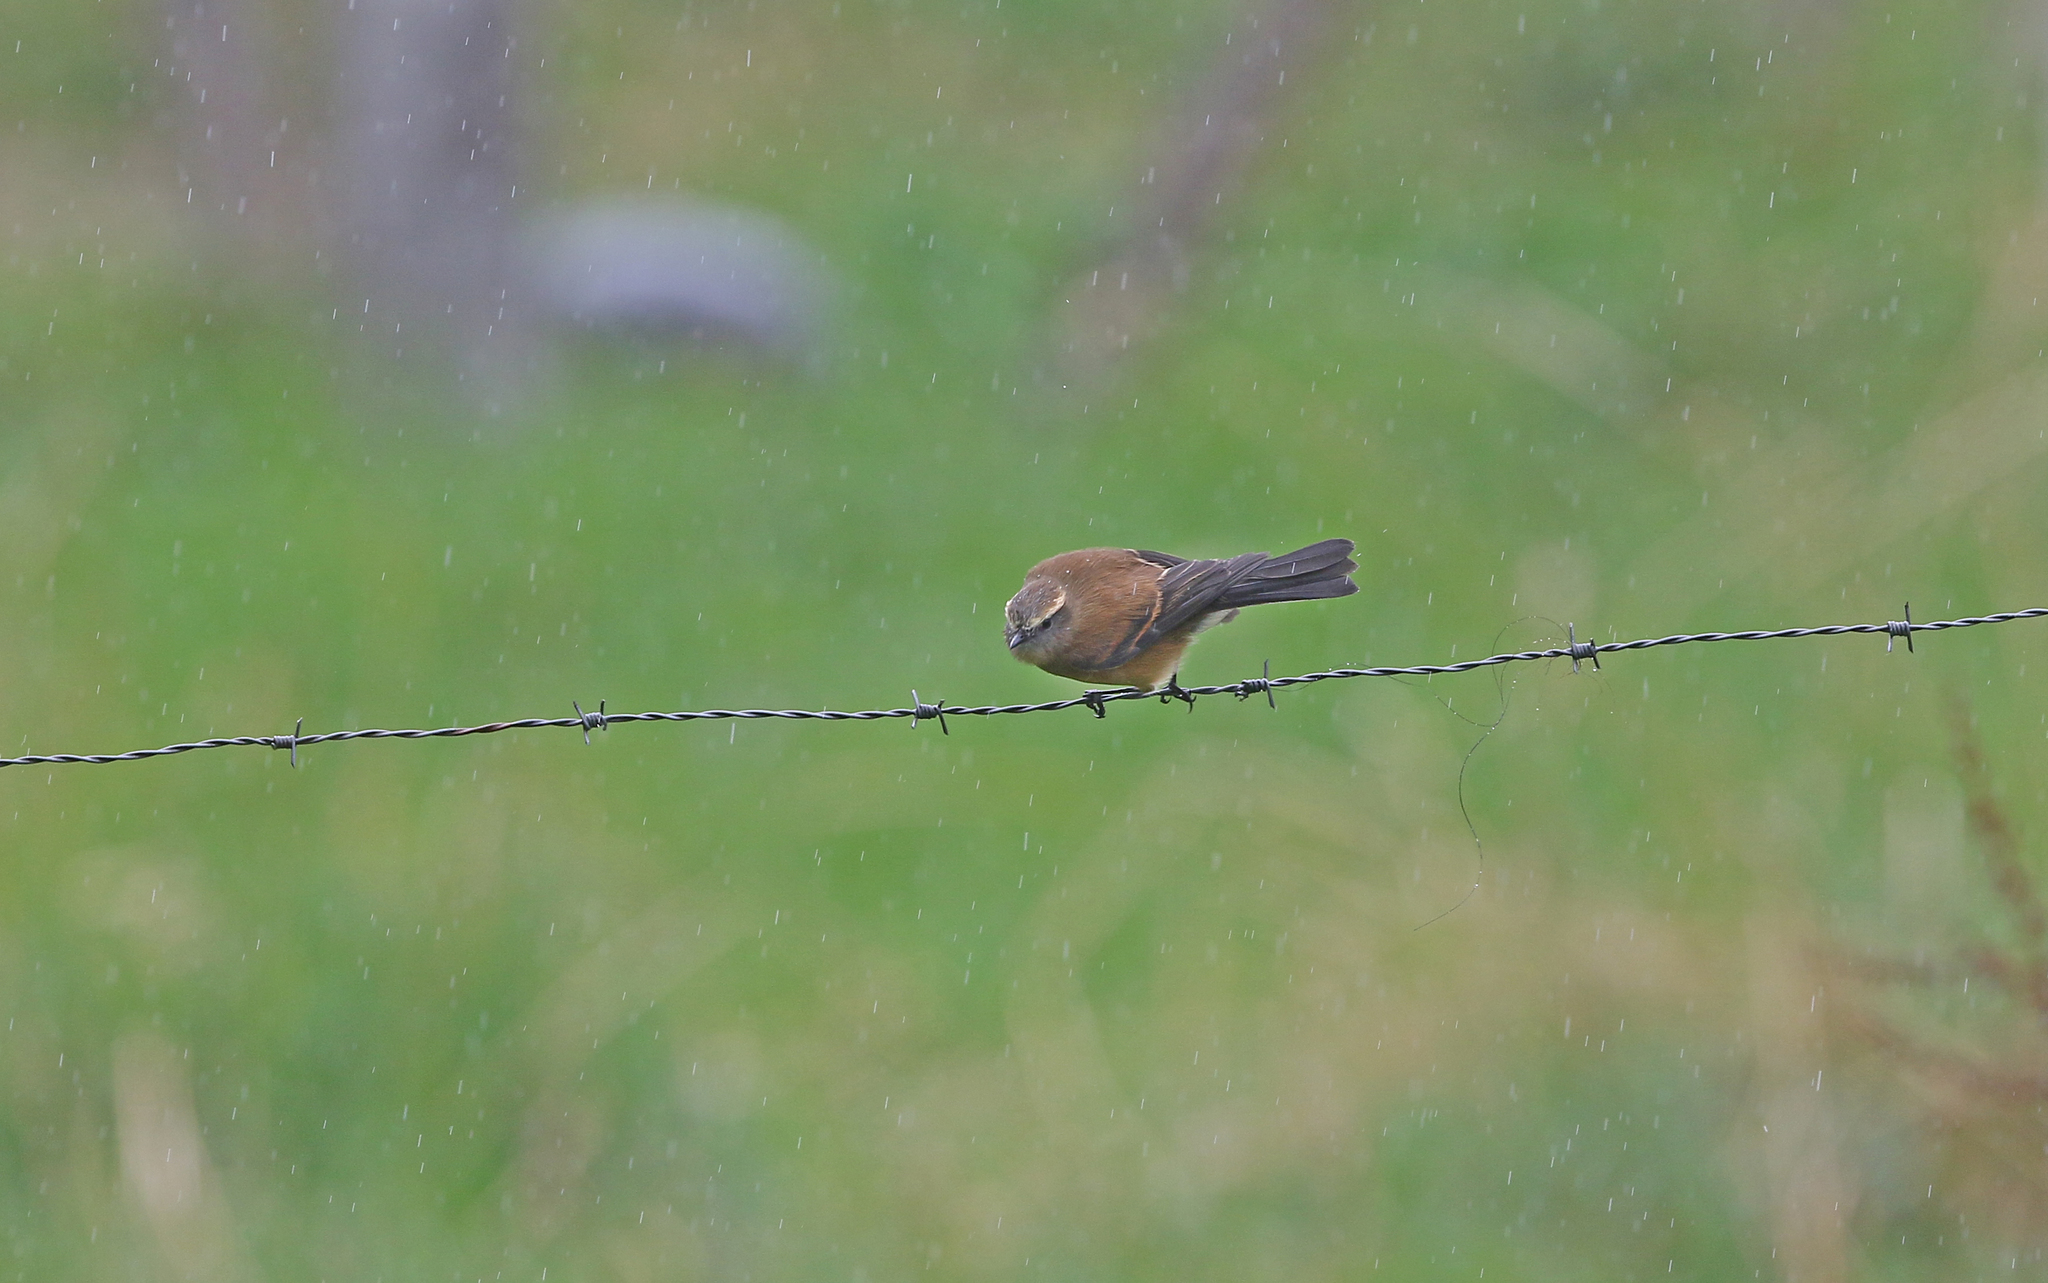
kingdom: Animalia
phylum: Chordata
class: Aves
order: Passeriformes
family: Tyrannidae
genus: Ochthoeca
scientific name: Ochthoeca fumicolor
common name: Brown-backed chat-tyrant
